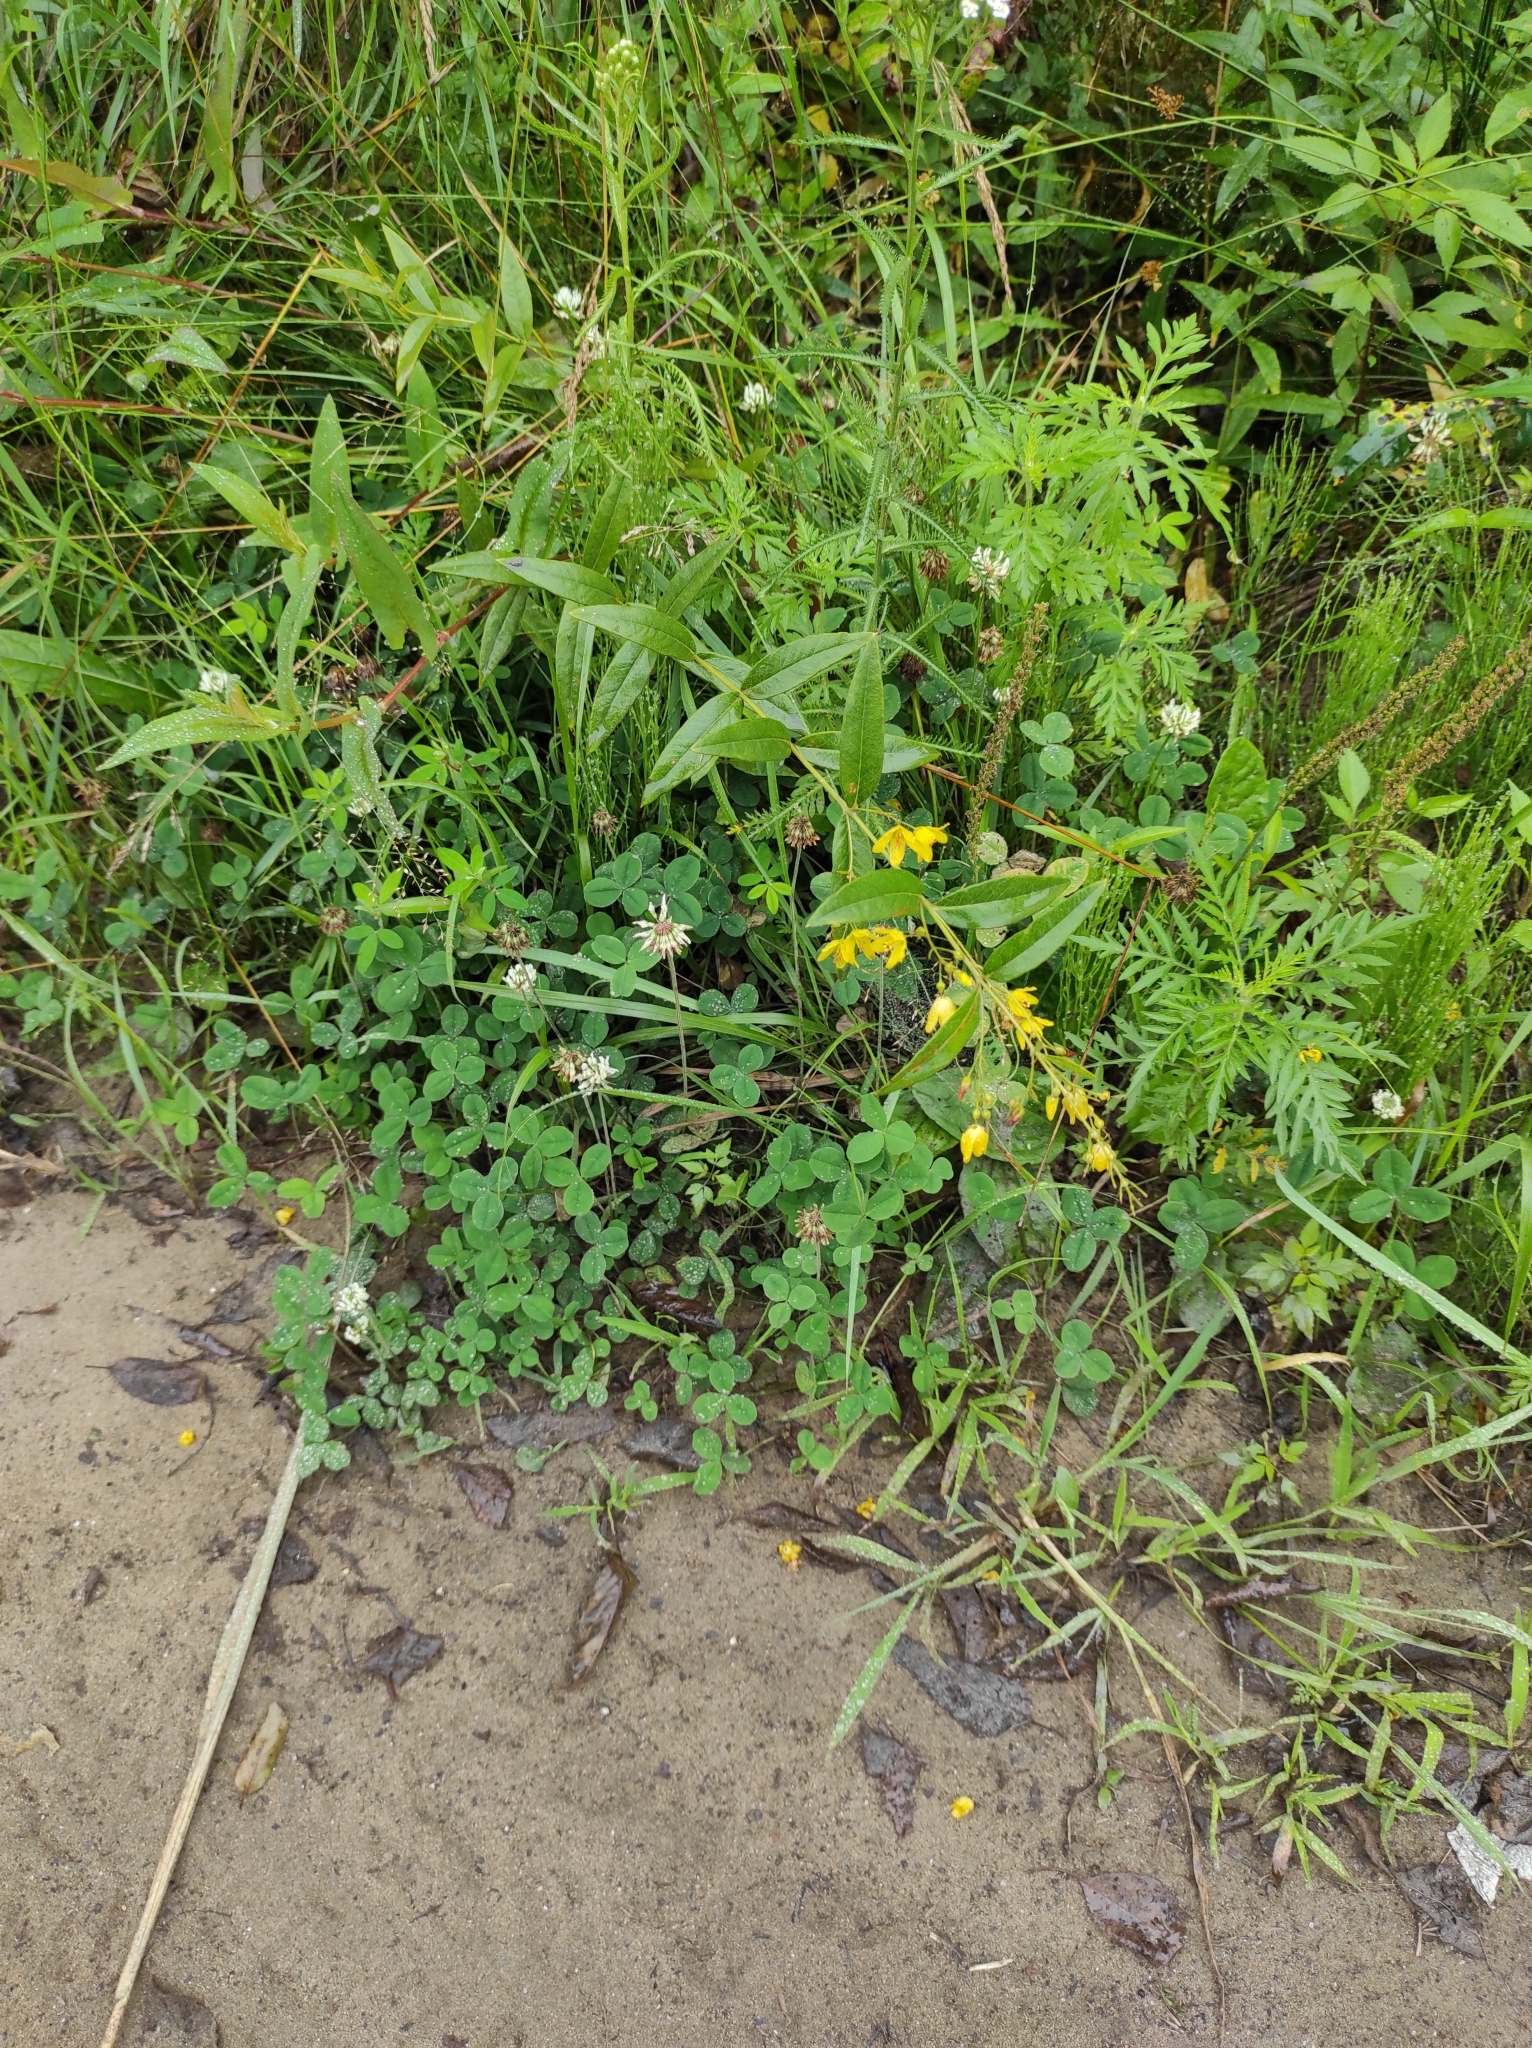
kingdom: Plantae
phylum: Tracheophyta
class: Magnoliopsida
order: Ericales
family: Primulaceae
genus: Lysimachia
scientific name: Lysimachia davurica
